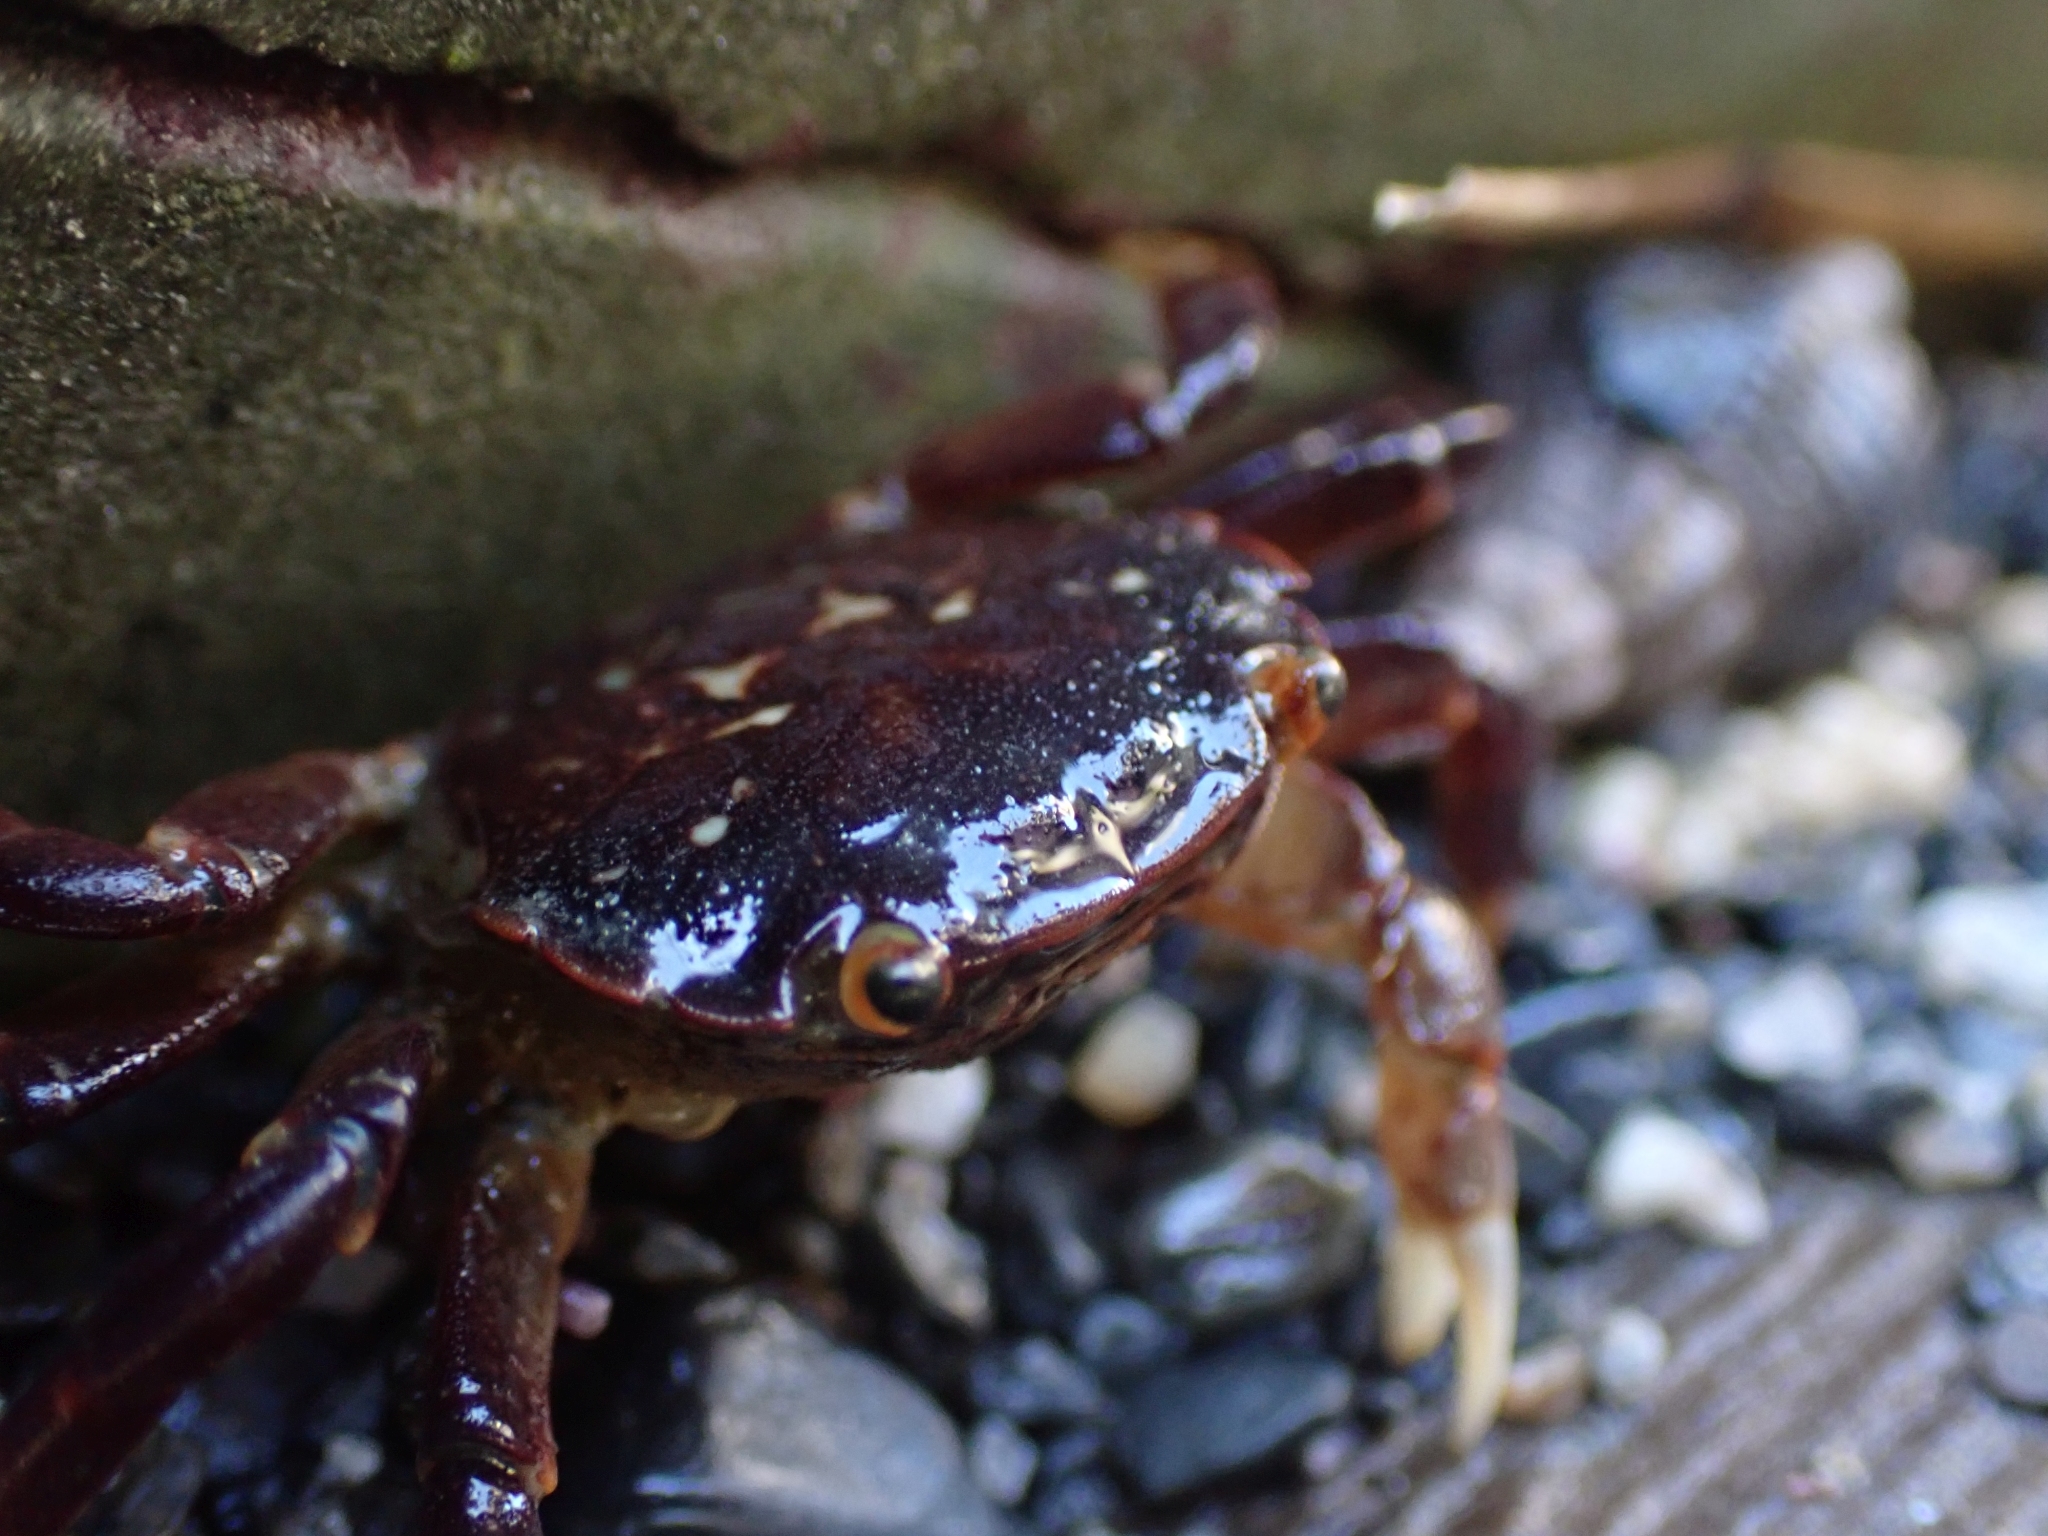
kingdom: Animalia
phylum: Arthropoda
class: Malacostraca
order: Decapoda
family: Varunidae
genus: Hemigrapsus
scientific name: Hemigrapsus nudus
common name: Purple shore crab
